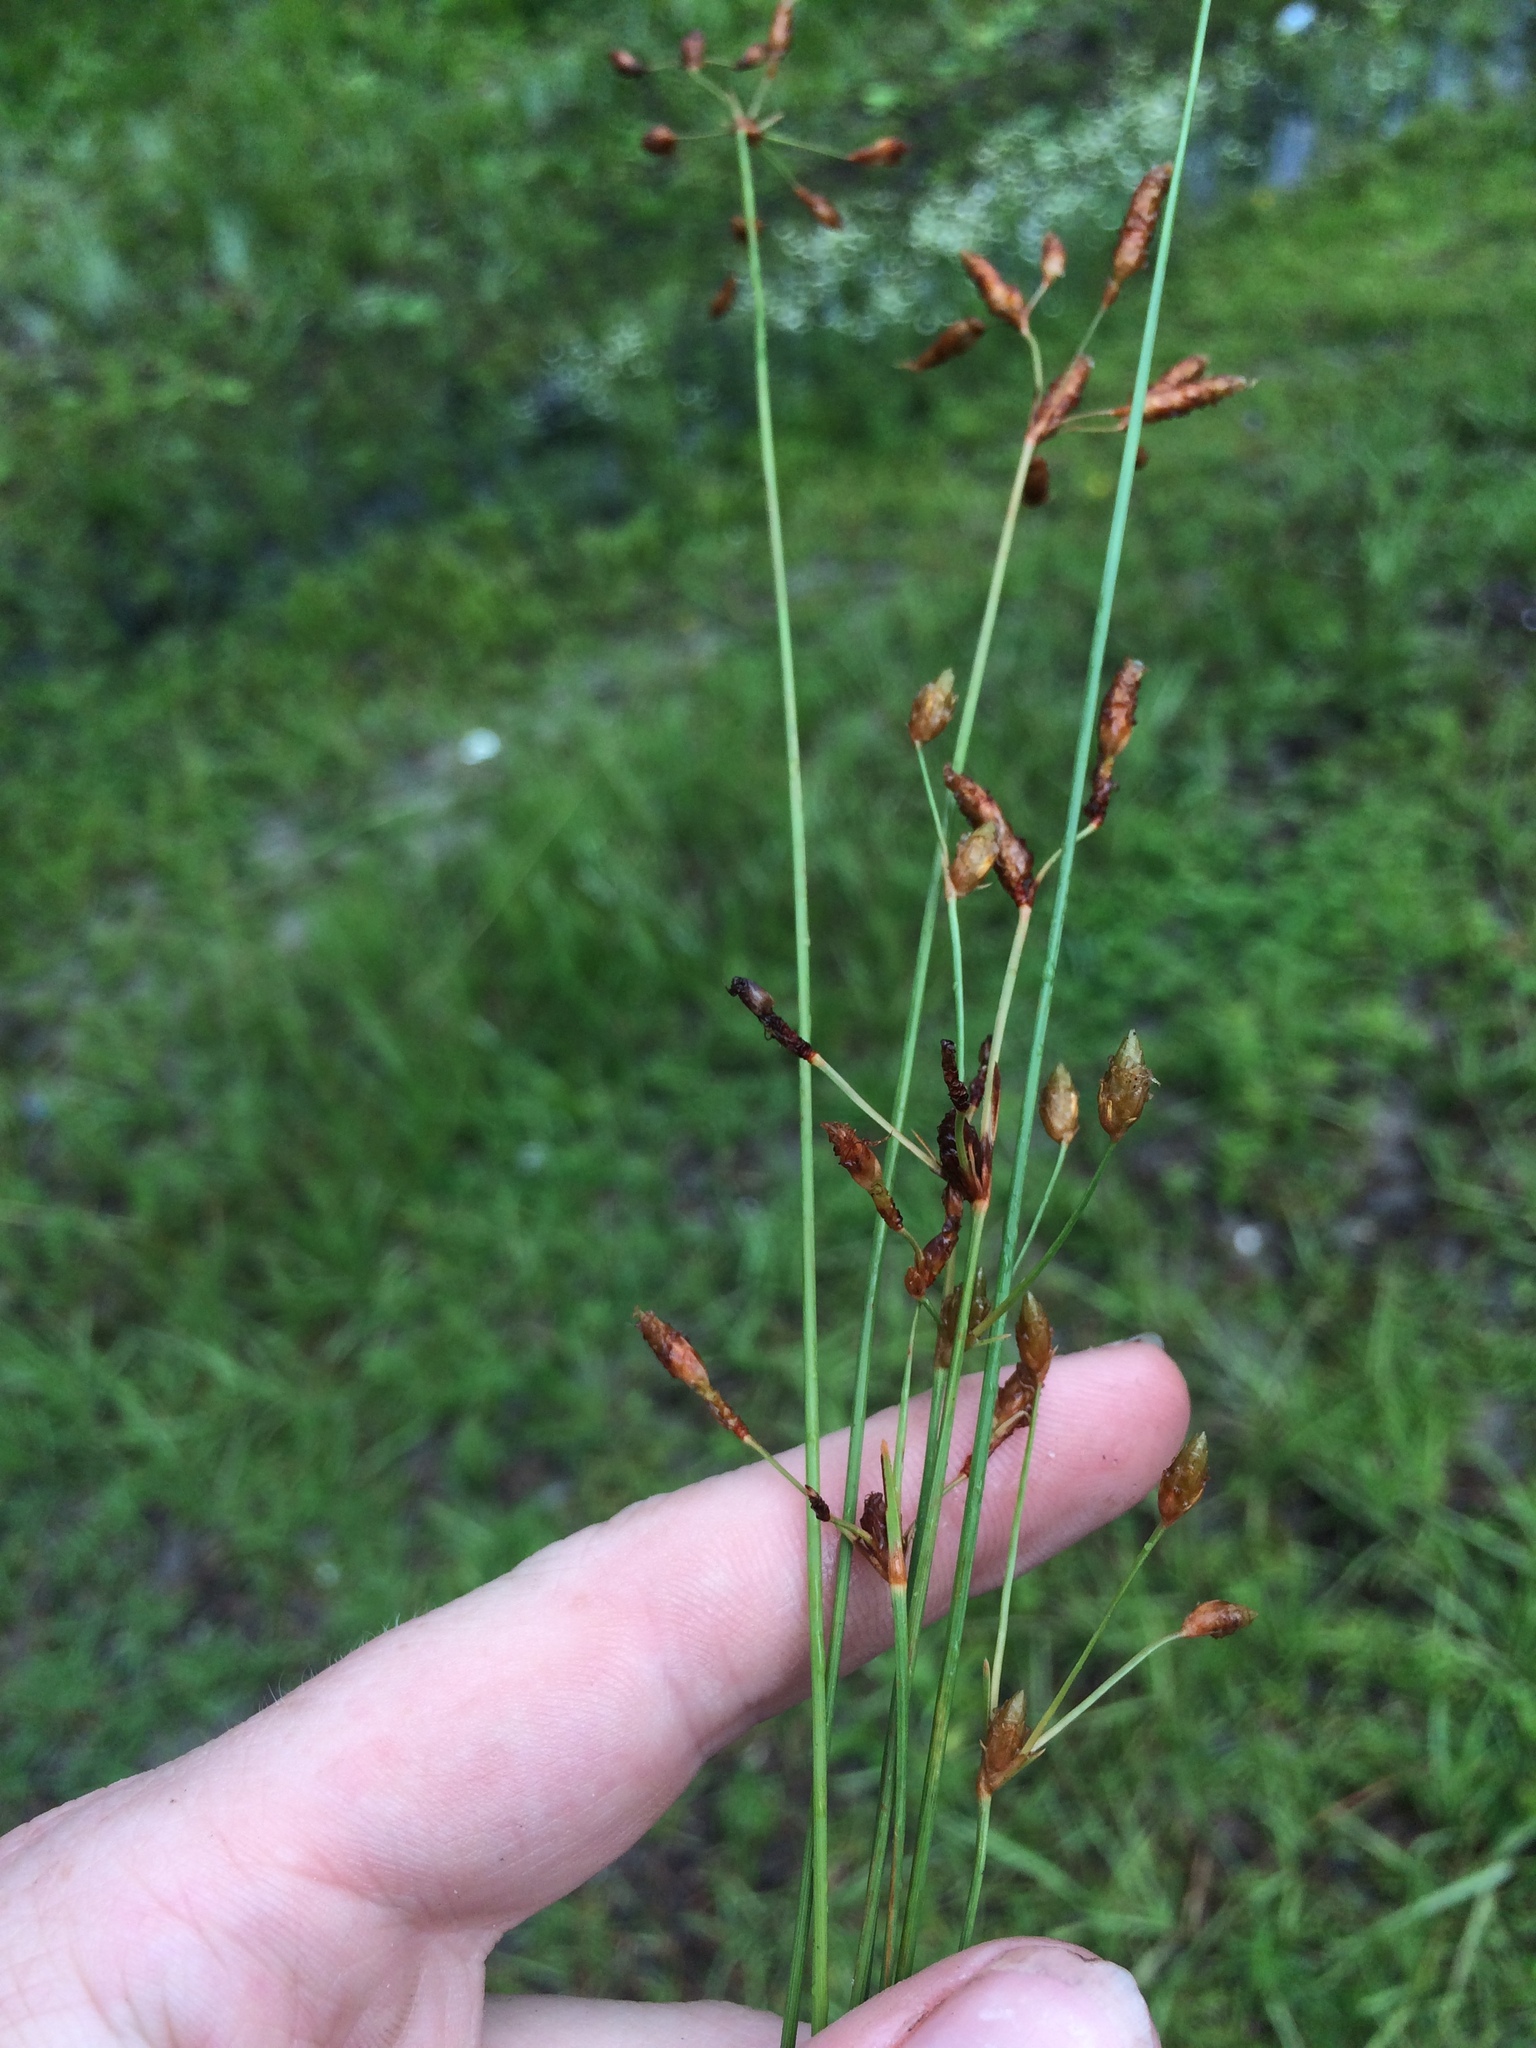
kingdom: Plantae
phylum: Tracheophyta
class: Liliopsida
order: Poales
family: Cyperaceae
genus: Fimbristylis
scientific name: Fimbristylis puberula
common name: Hairy fimbristylis
